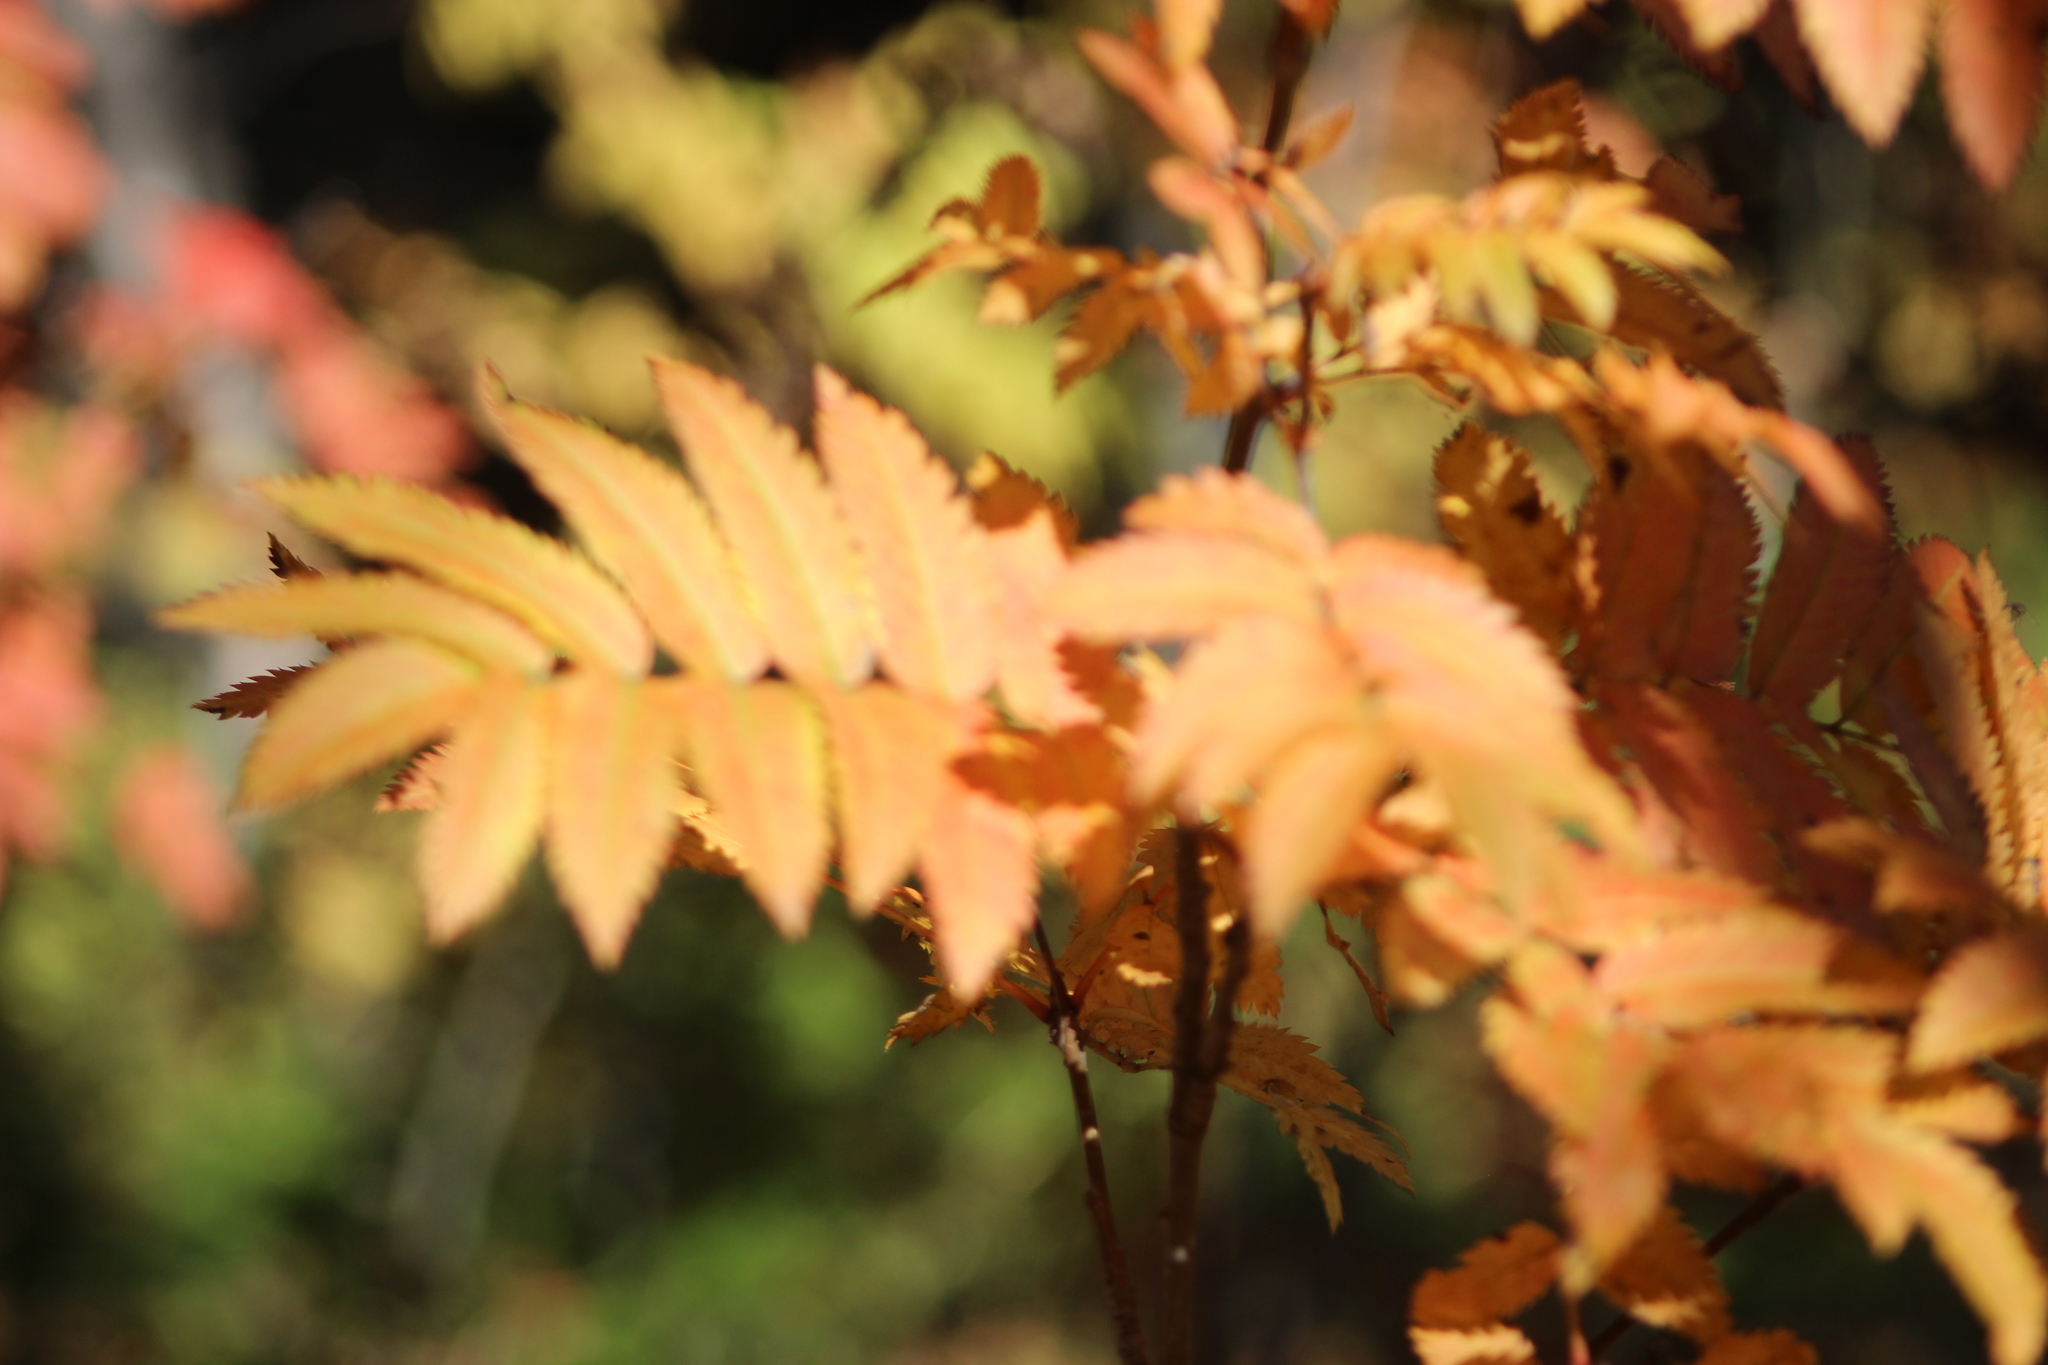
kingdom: Plantae
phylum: Tracheophyta
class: Magnoliopsida
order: Rosales
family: Rosaceae
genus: Sorbus
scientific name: Sorbus aucuparia
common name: Rowan
